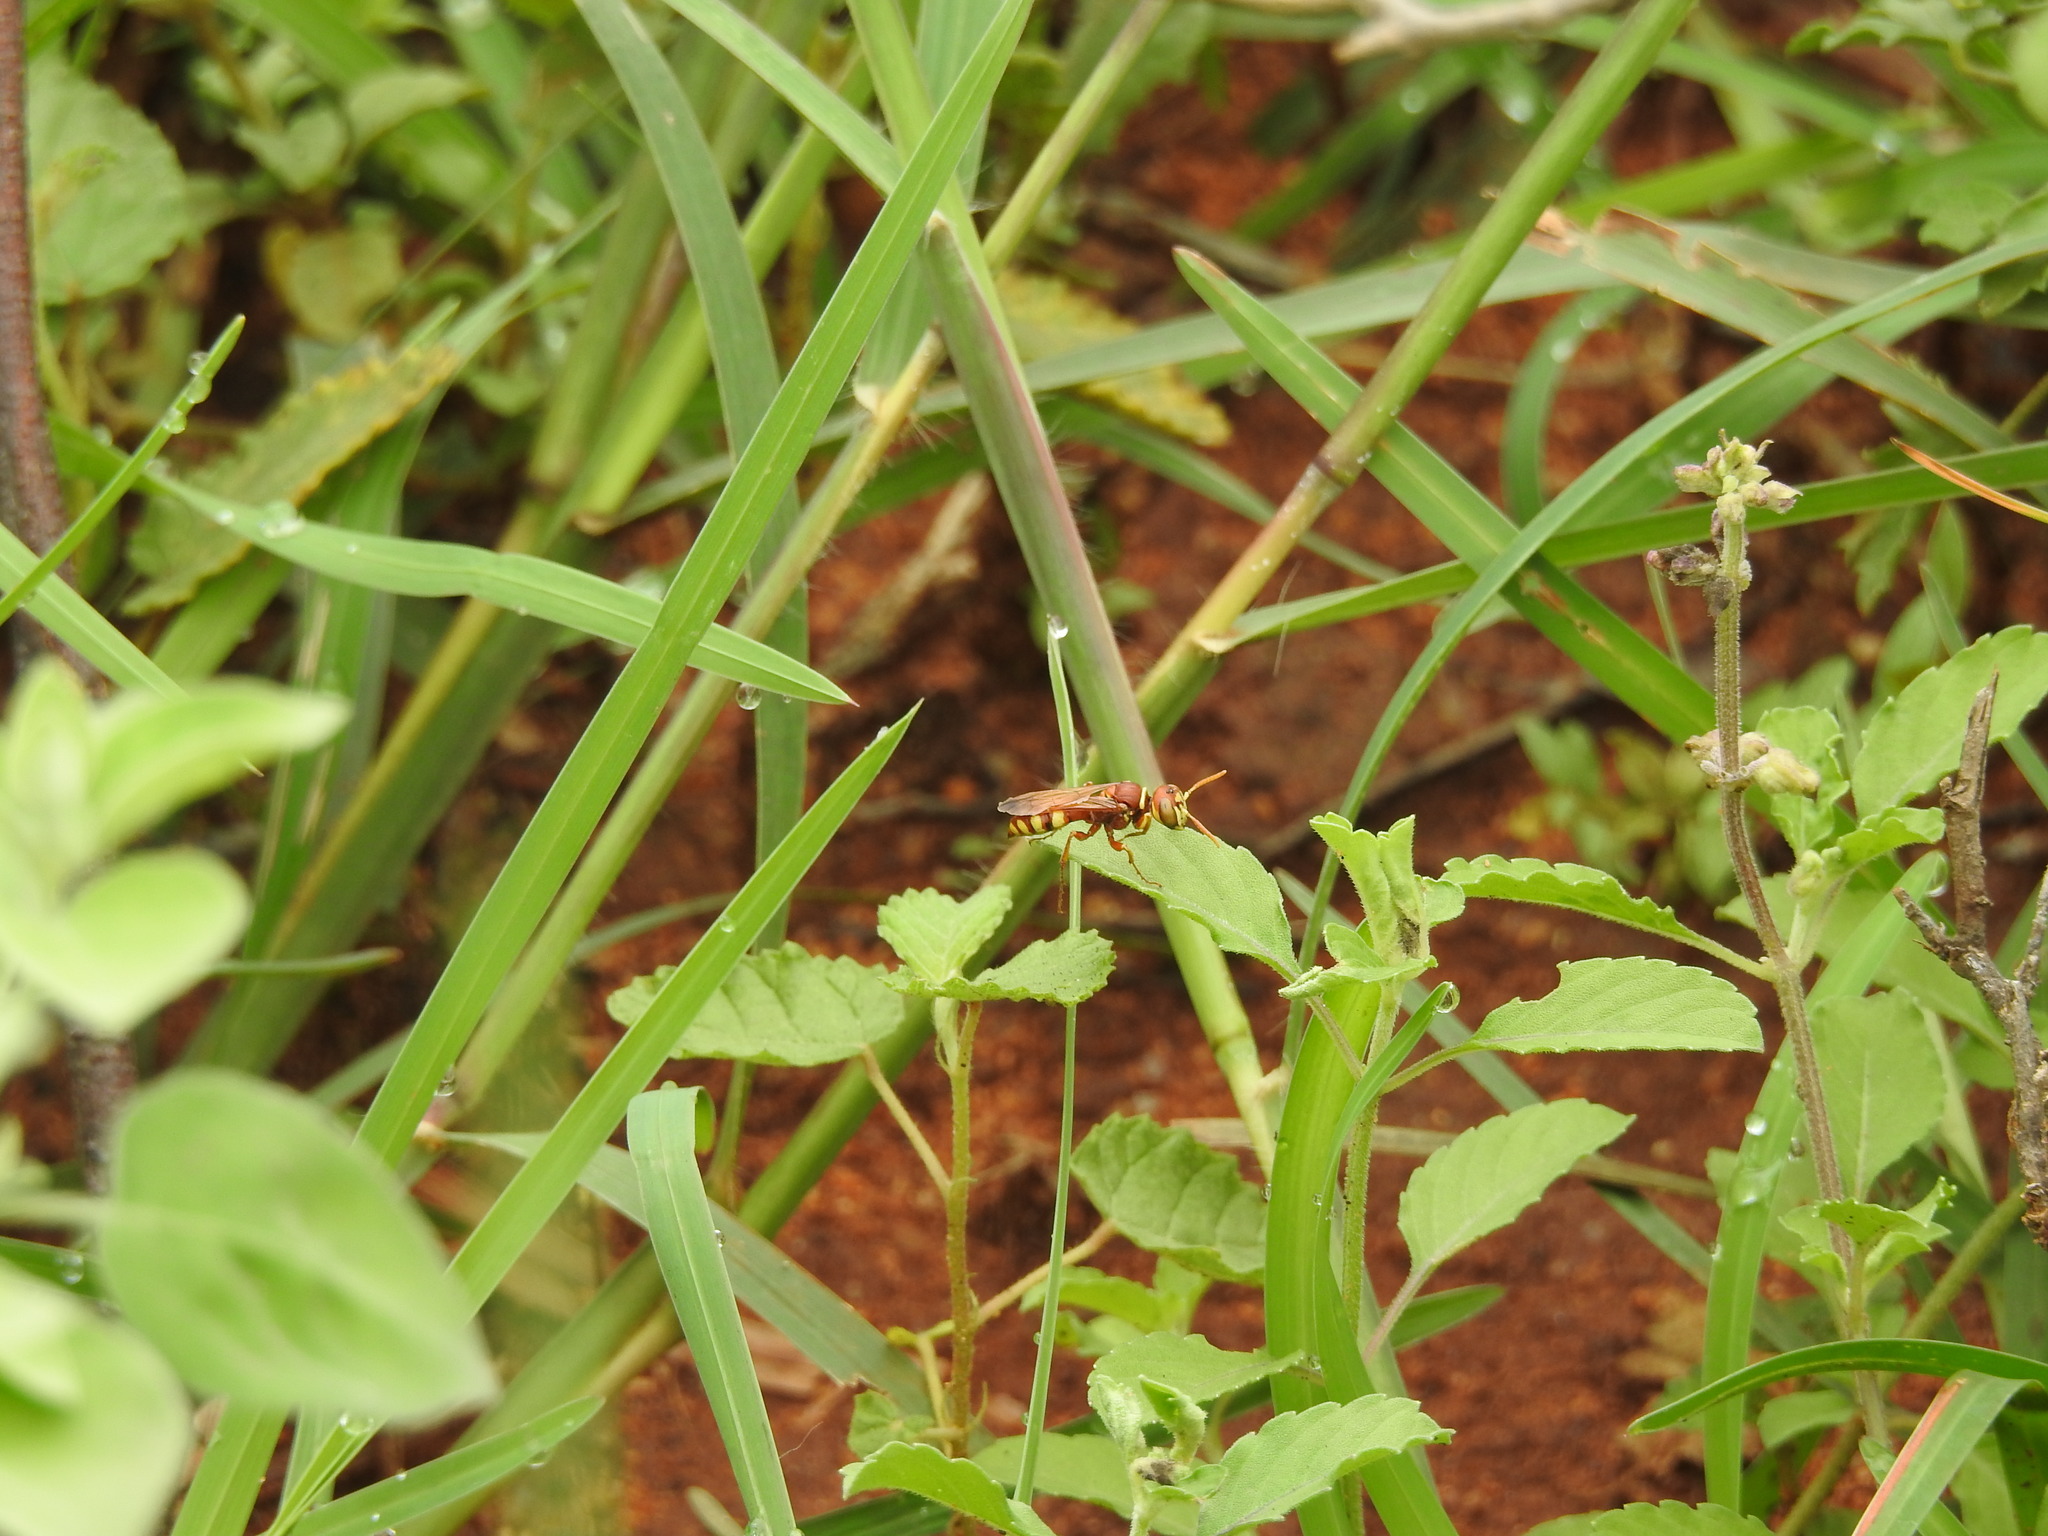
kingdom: Animalia
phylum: Arthropoda
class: Insecta
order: Hymenoptera
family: Crabronidae
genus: Philanthus
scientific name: Philanthus depredator
